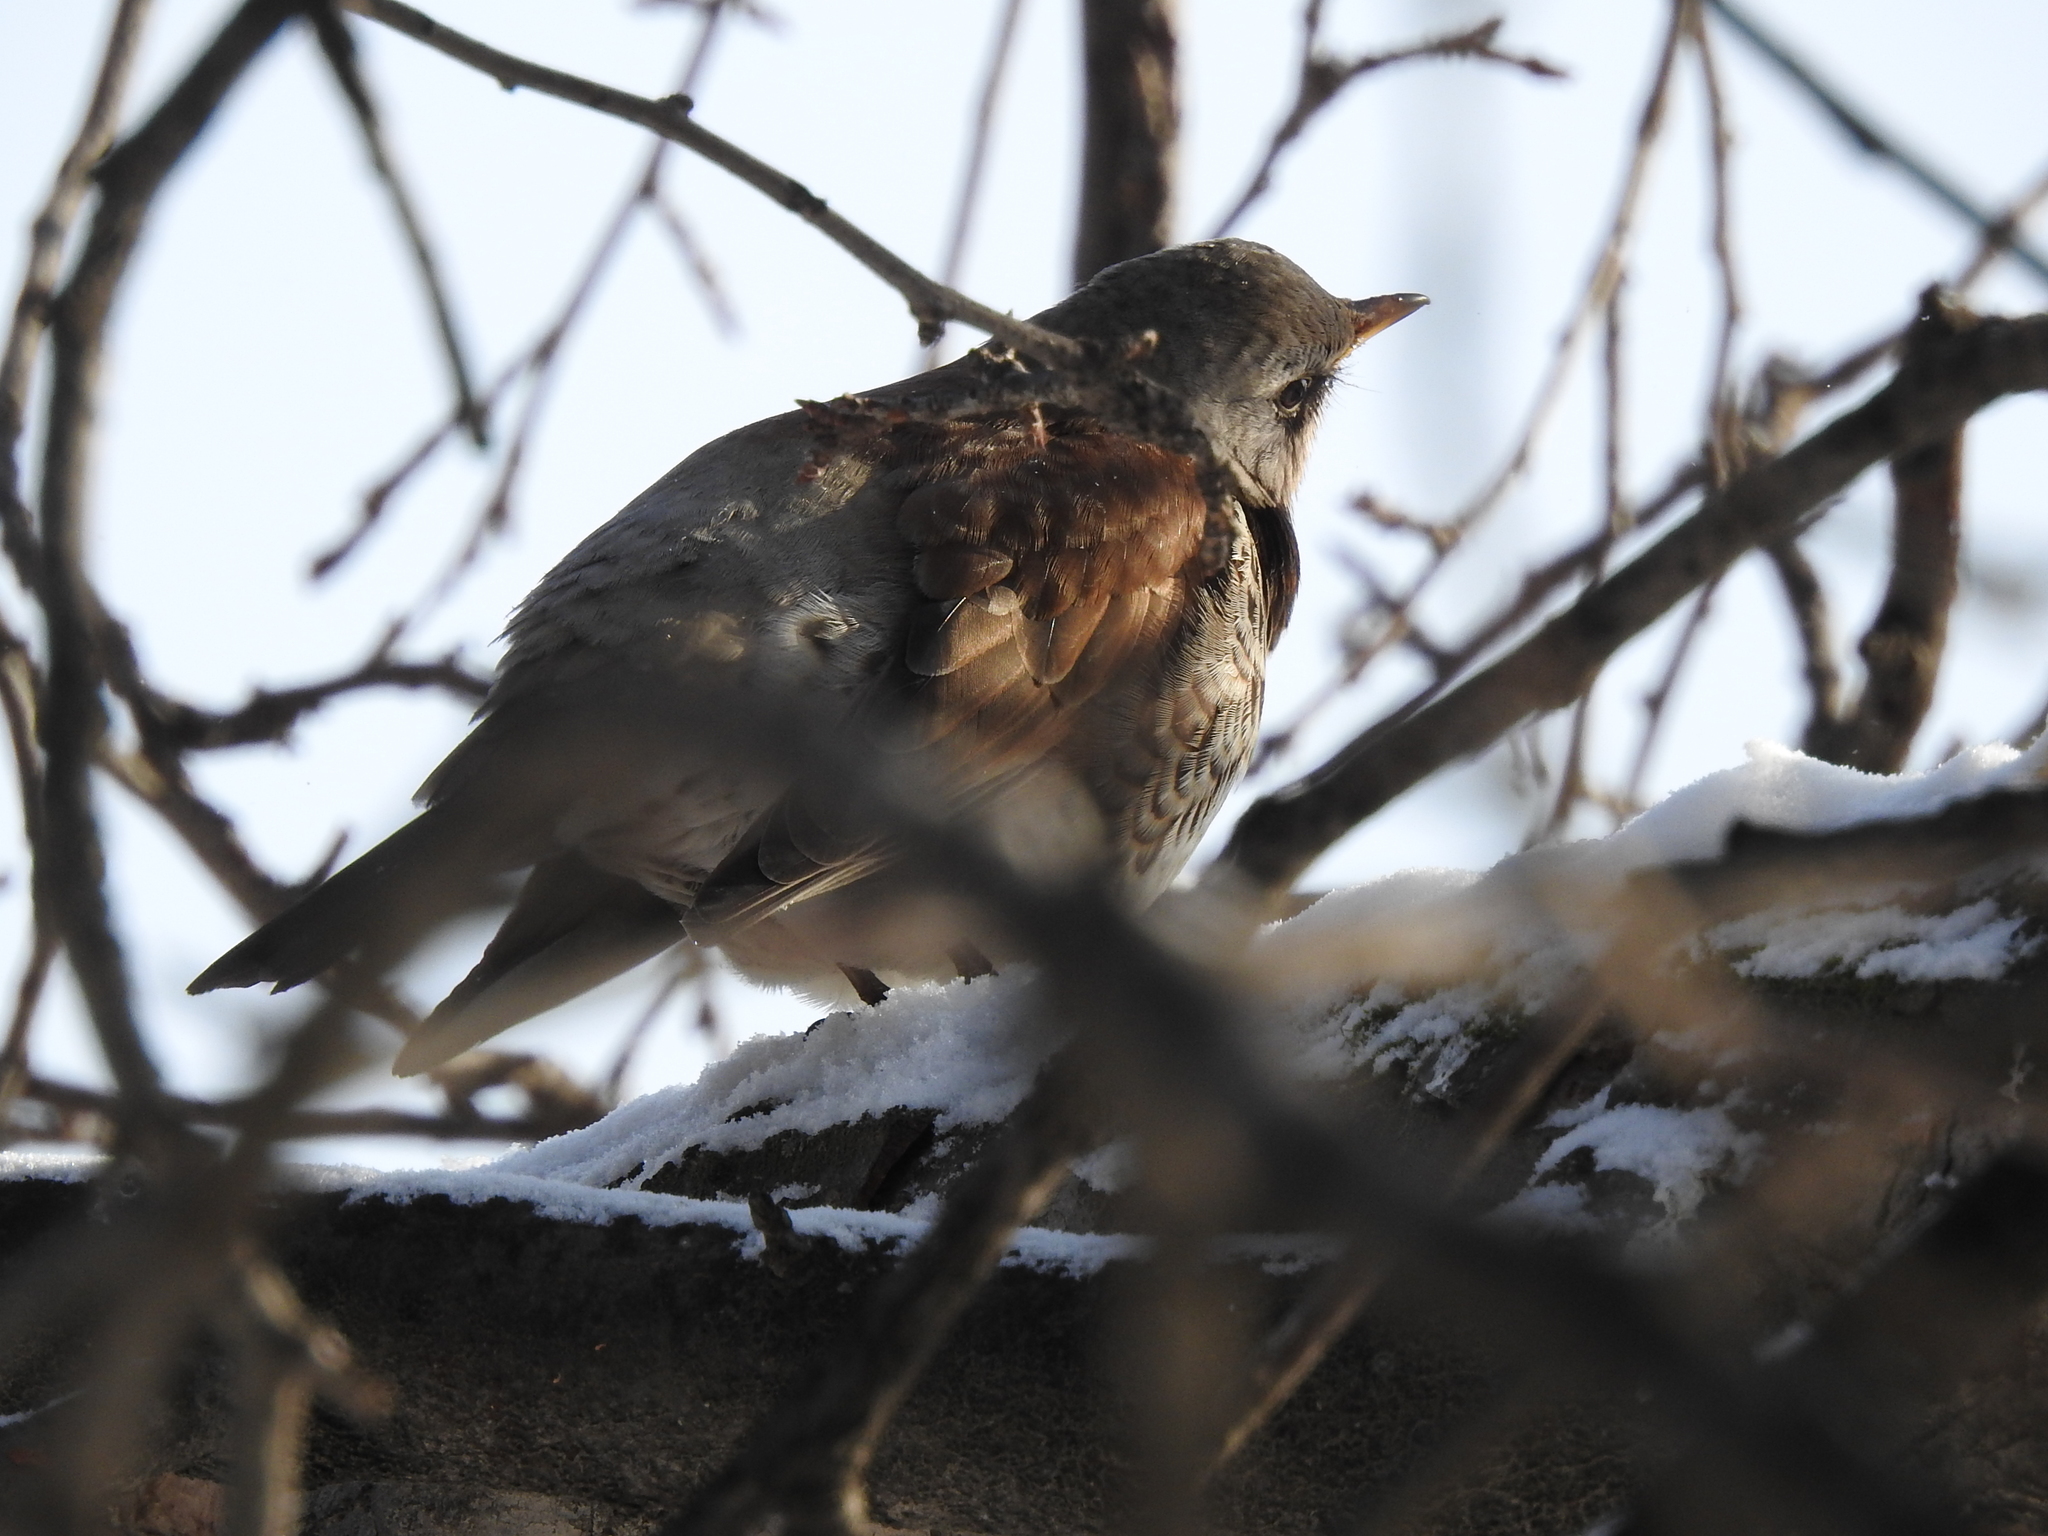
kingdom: Animalia
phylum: Chordata
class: Aves
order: Passeriformes
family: Turdidae
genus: Turdus
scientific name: Turdus pilaris
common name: Fieldfare
